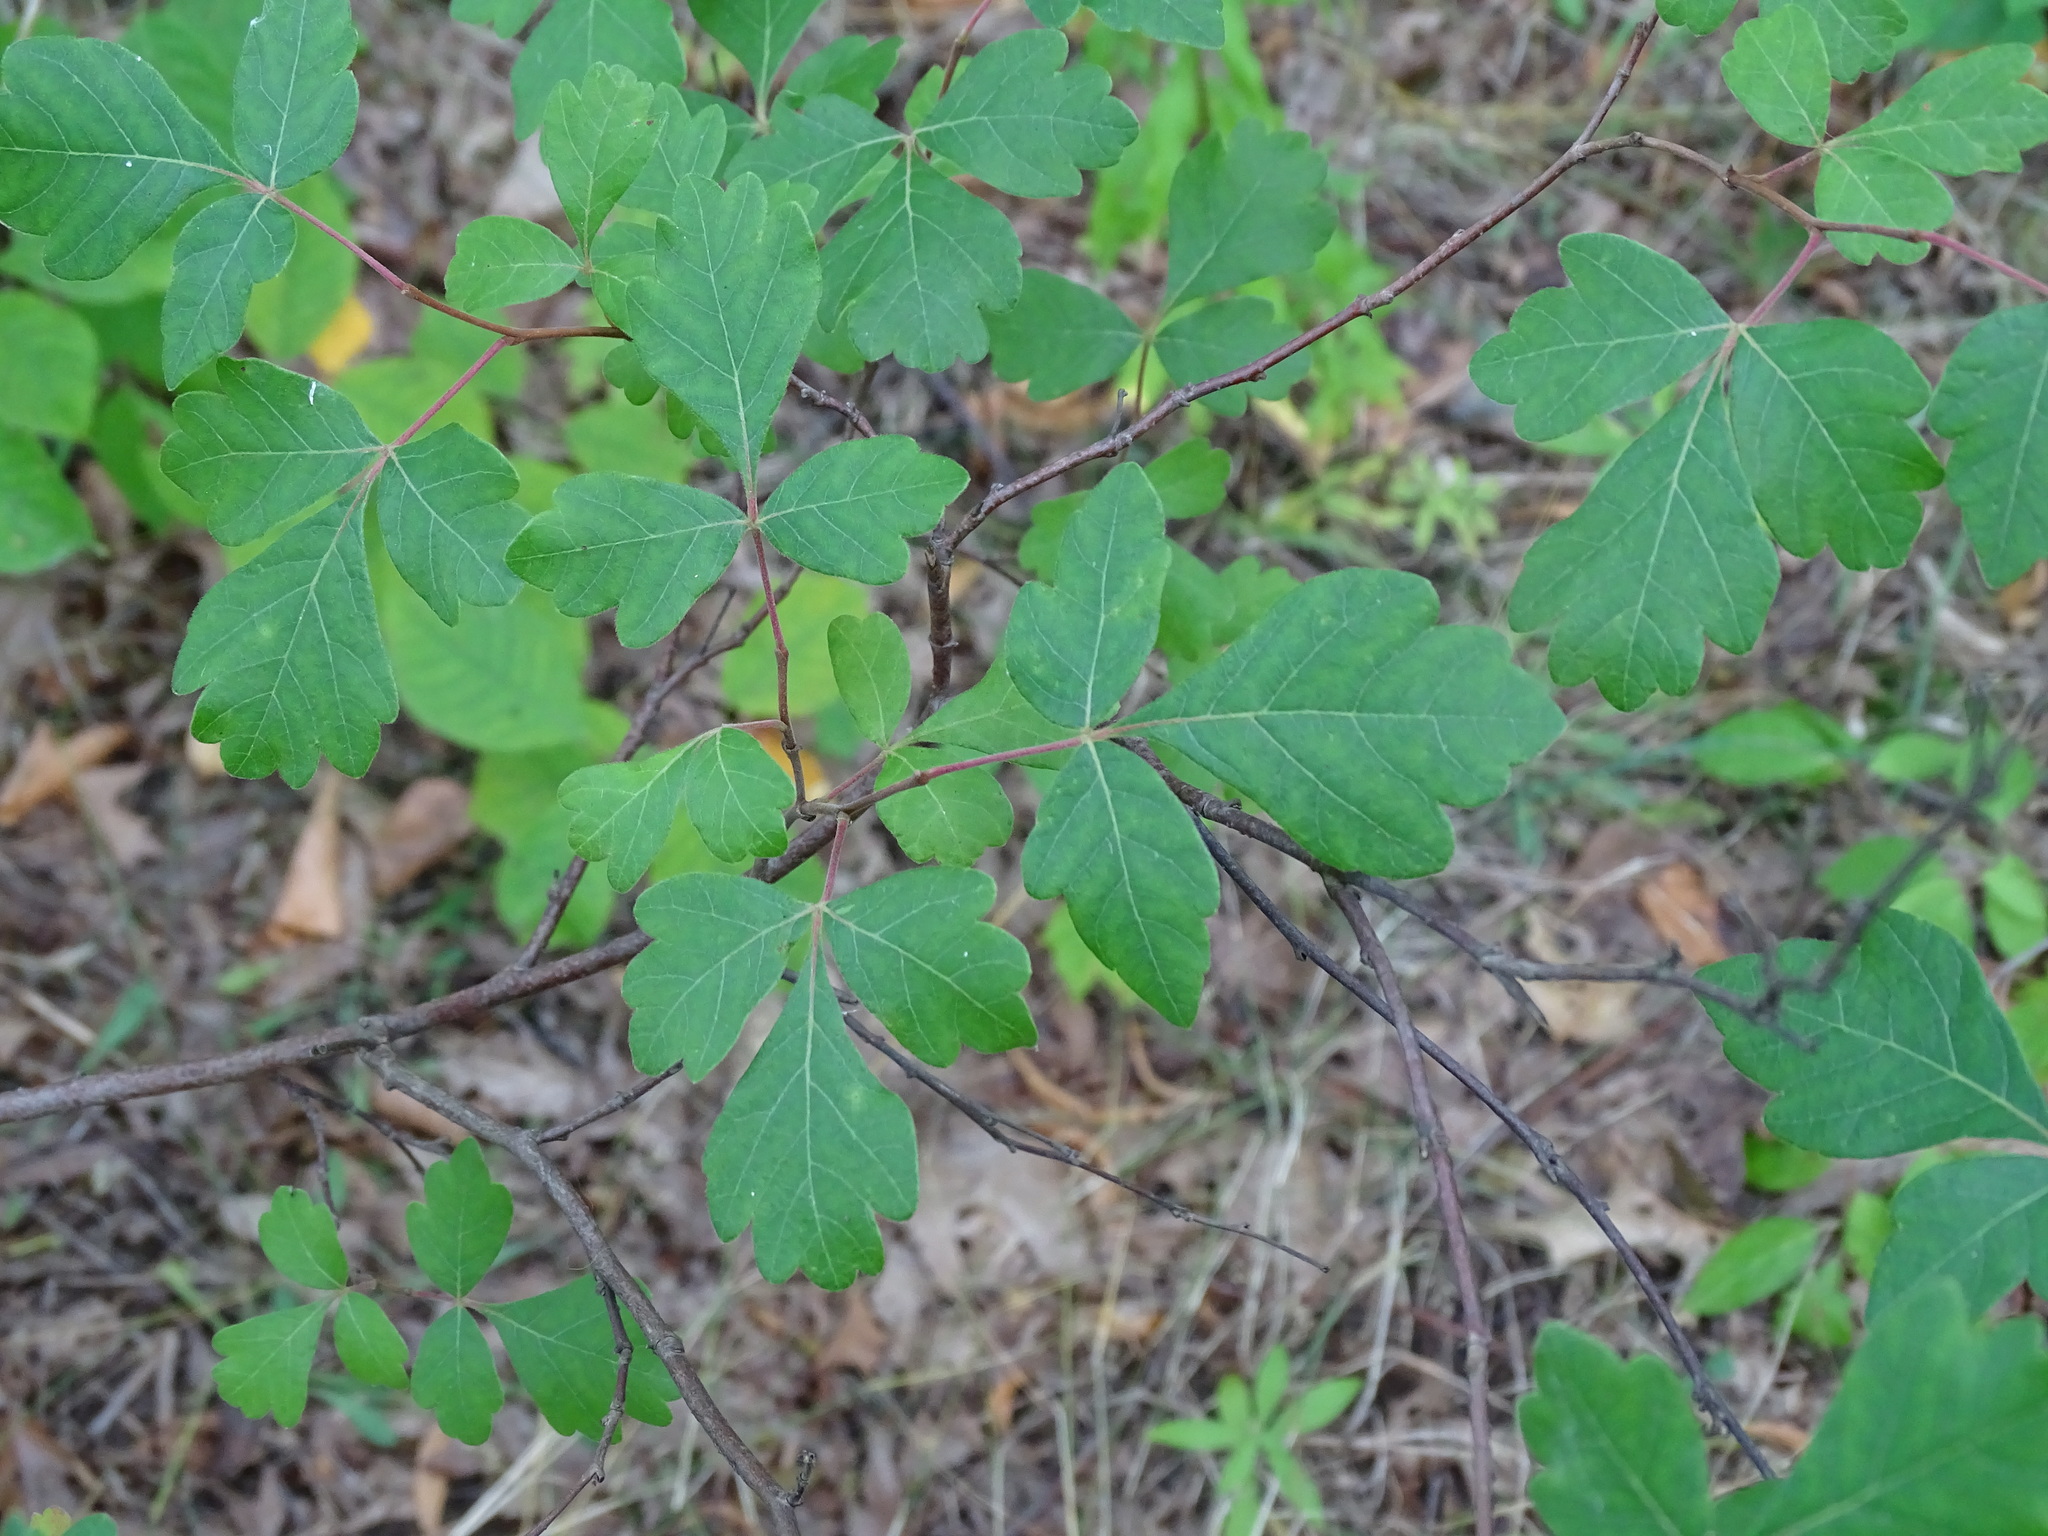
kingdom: Plantae
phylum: Tracheophyta
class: Magnoliopsida
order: Sapindales
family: Anacardiaceae
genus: Rhus
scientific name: Rhus aromatica
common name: Aromatic sumac
